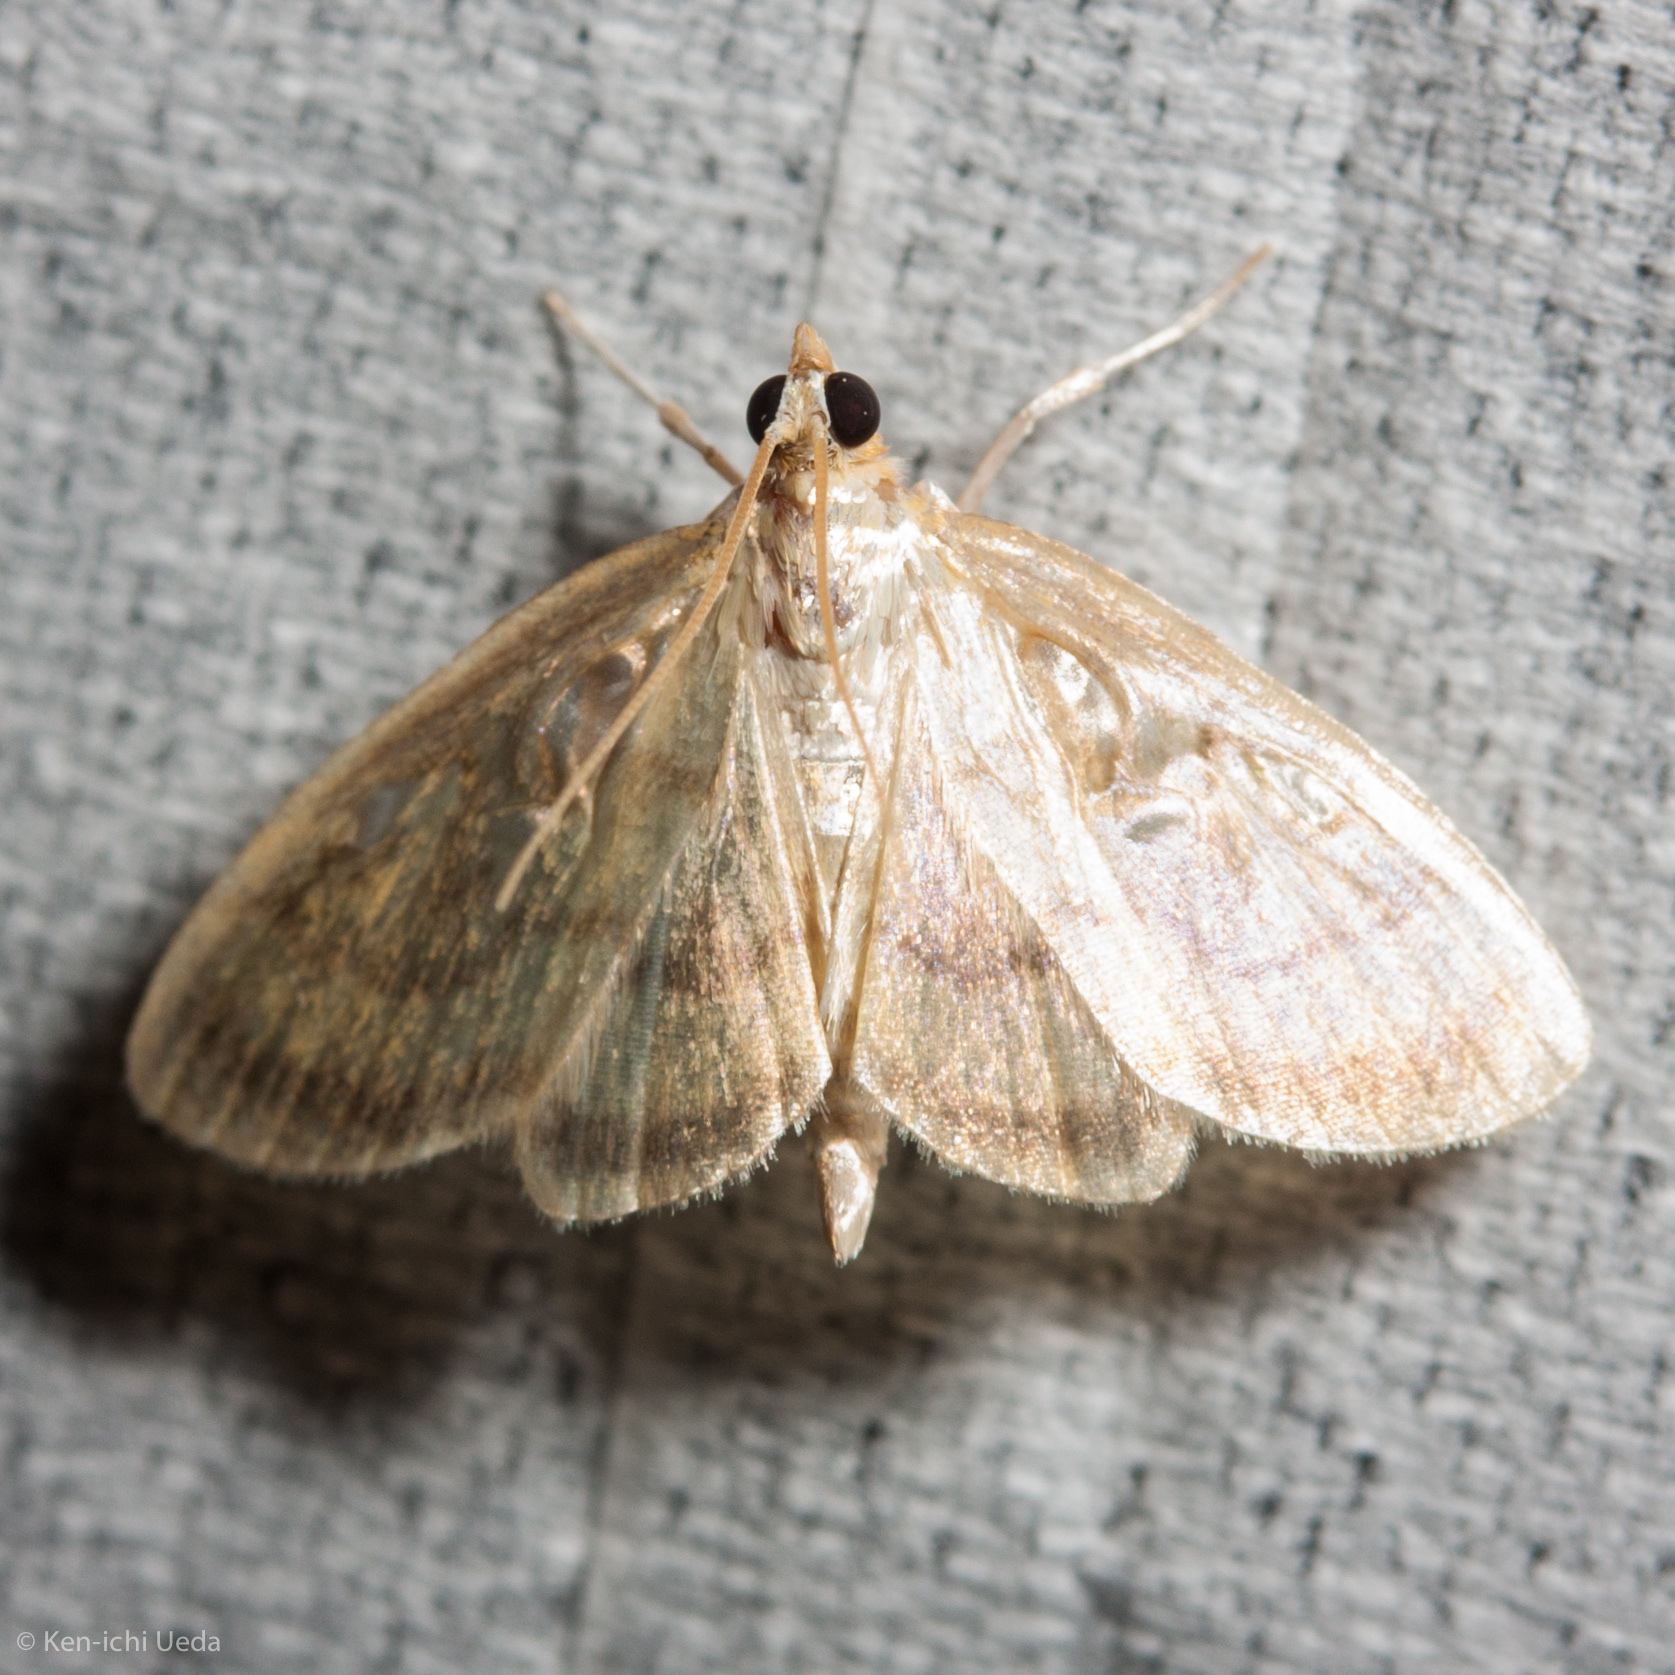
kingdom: Animalia
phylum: Arthropoda
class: Insecta
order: Lepidoptera
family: Crambidae
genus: Crocidophora
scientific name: Crocidophora tuberculalis
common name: Pale-winged crocidiphora moth
